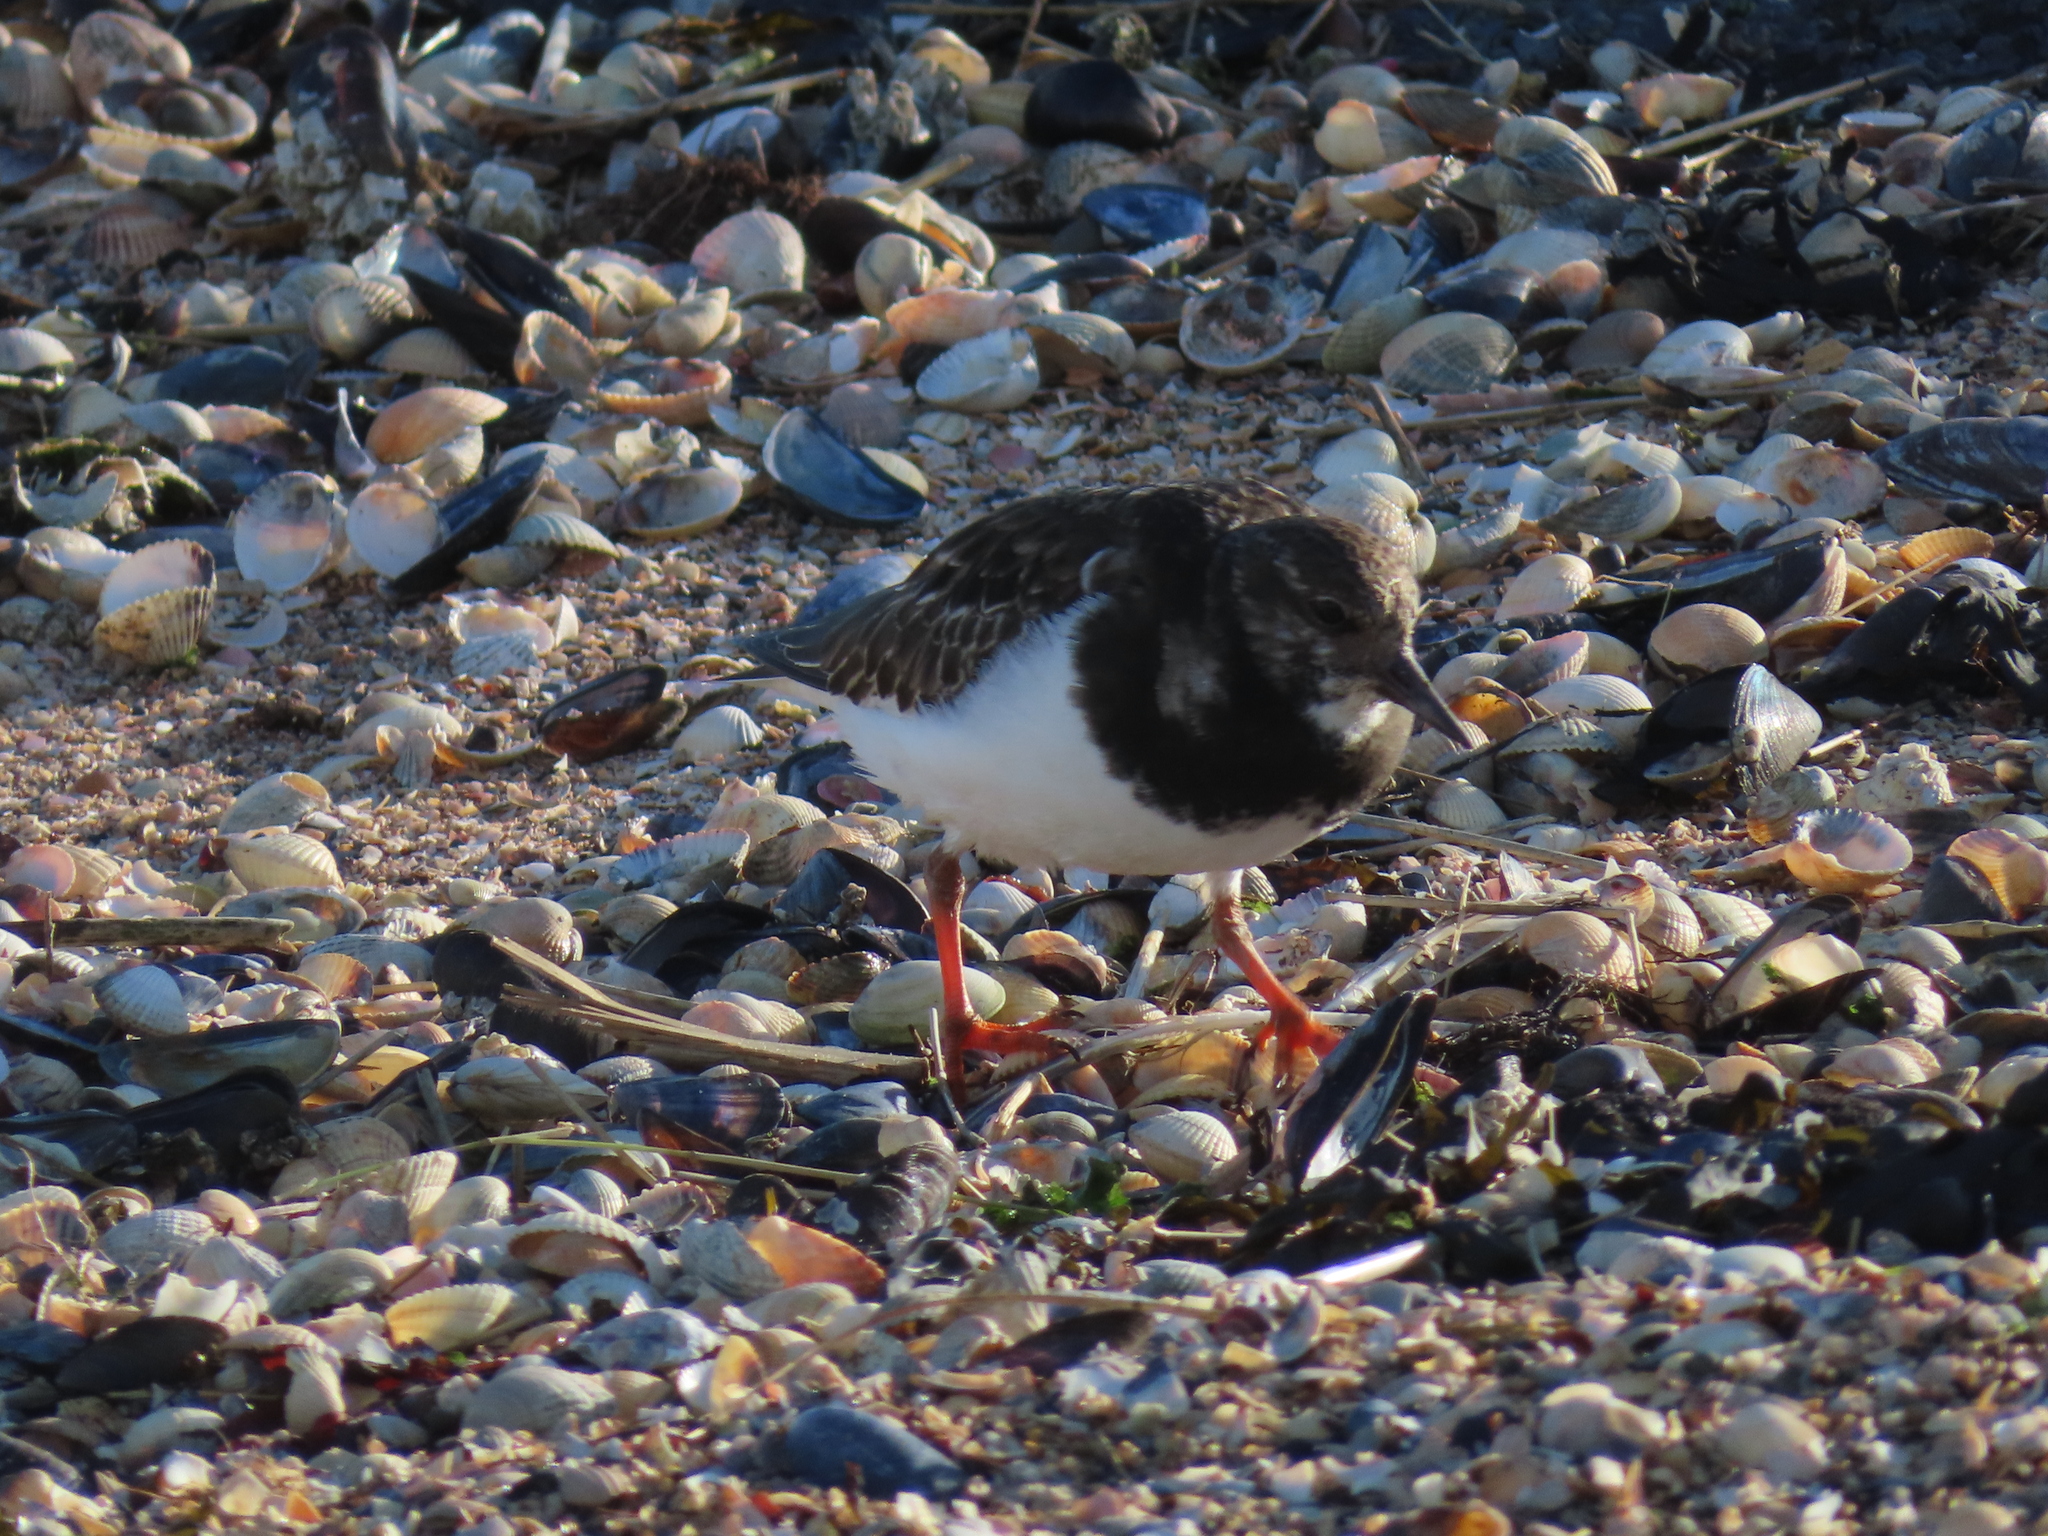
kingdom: Animalia
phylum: Chordata
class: Aves
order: Charadriiformes
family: Scolopacidae
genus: Arenaria
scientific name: Arenaria interpres
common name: Ruddy turnstone
